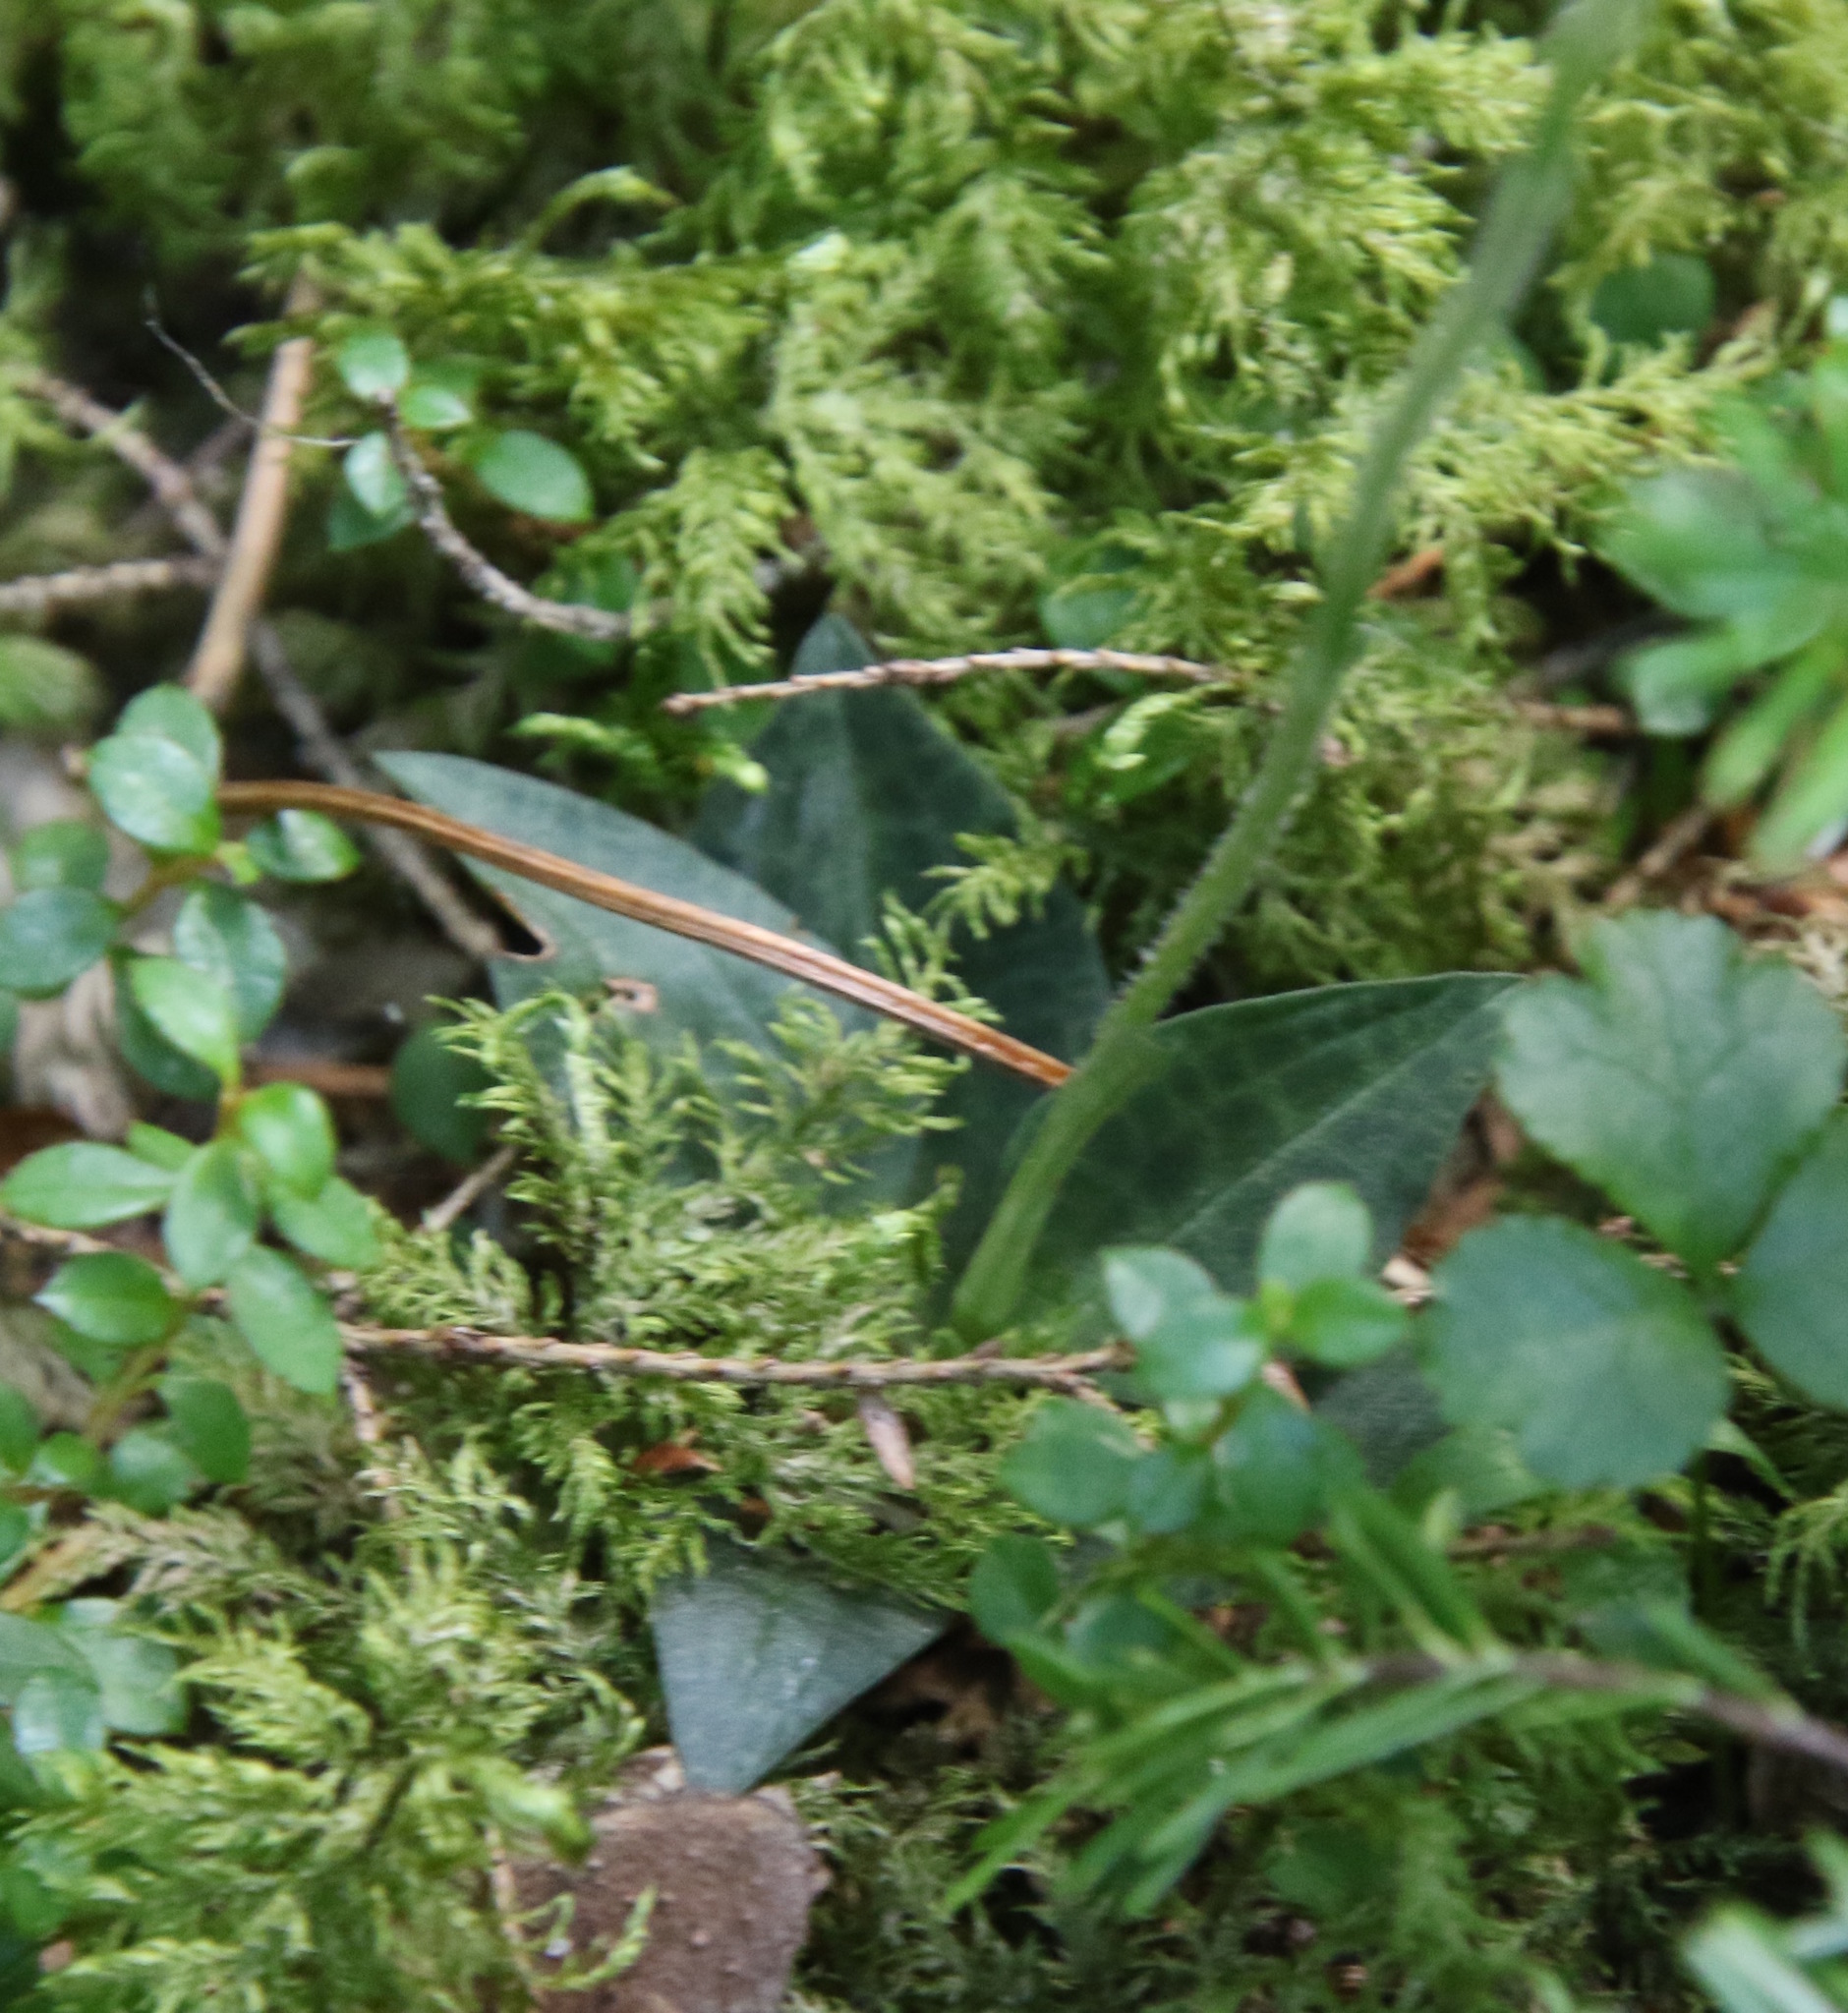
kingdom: Plantae
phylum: Tracheophyta
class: Liliopsida
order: Asparagales
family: Orchidaceae
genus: Goodyera
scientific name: Goodyera tesselata
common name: Checkered rattlesnake-plantain
